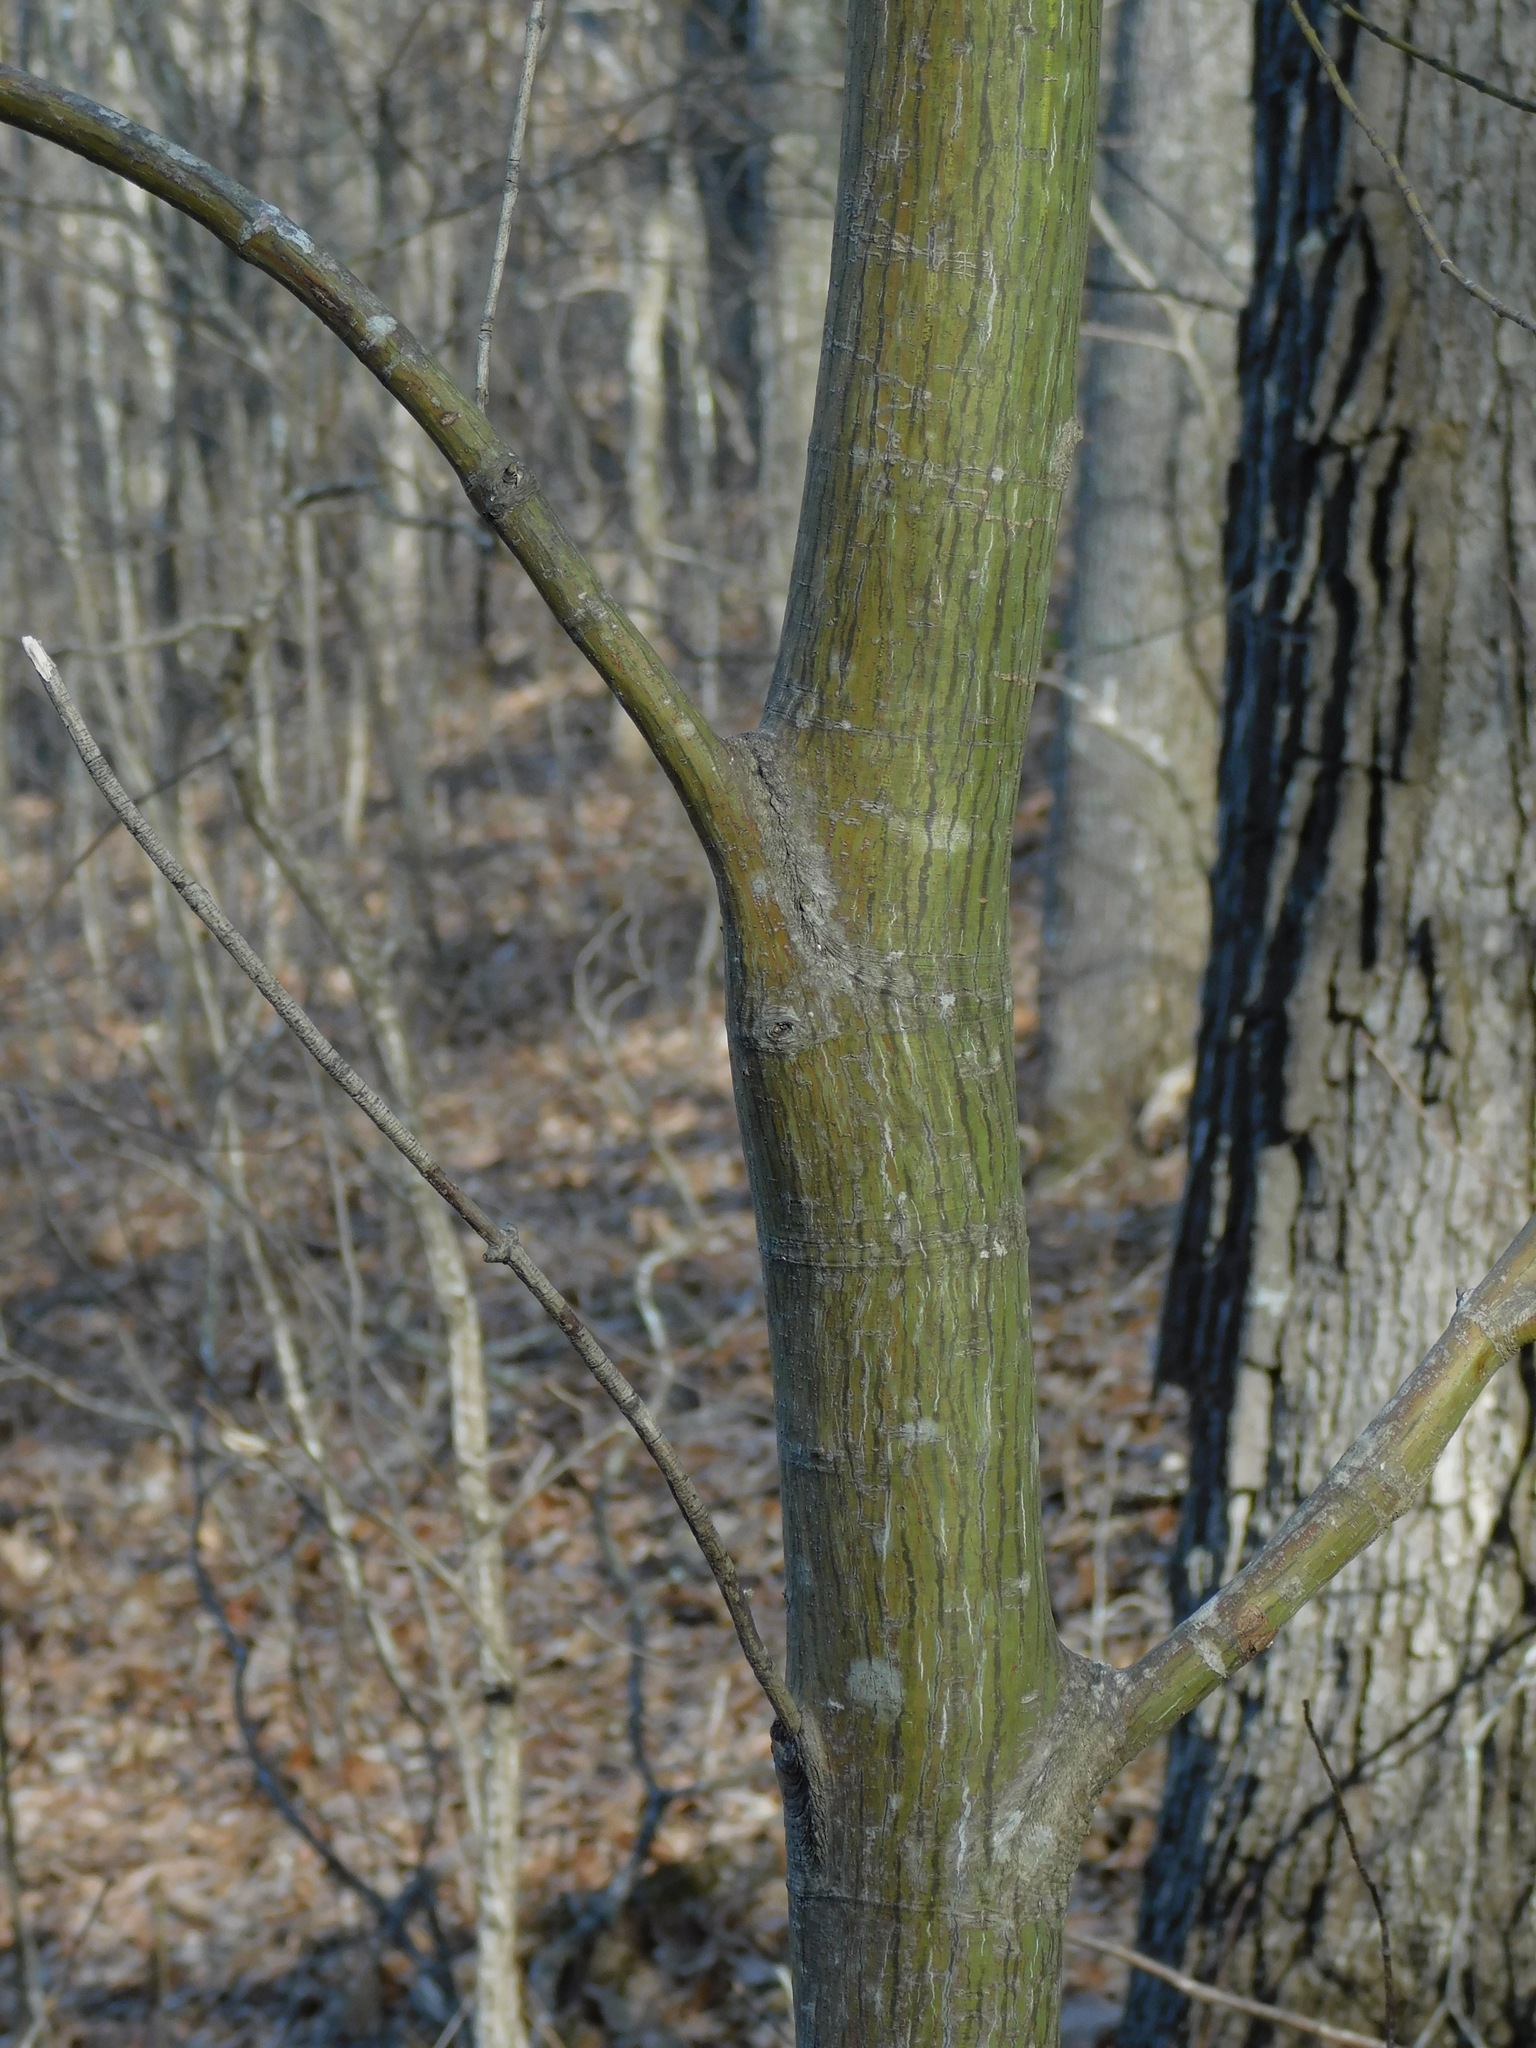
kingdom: Plantae
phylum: Tracheophyta
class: Magnoliopsida
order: Sapindales
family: Sapindaceae
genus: Acer
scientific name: Acer pensylvanicum
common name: Moosewood
